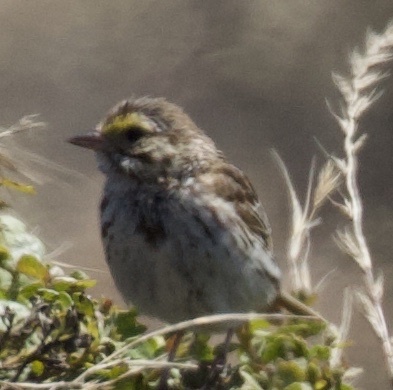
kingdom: Animalia
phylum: Chordata
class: Aves
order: Passeriformes
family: Passerellidae
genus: Passerculus
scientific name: Passerculus sandwichensis
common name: Savannah sparrow
